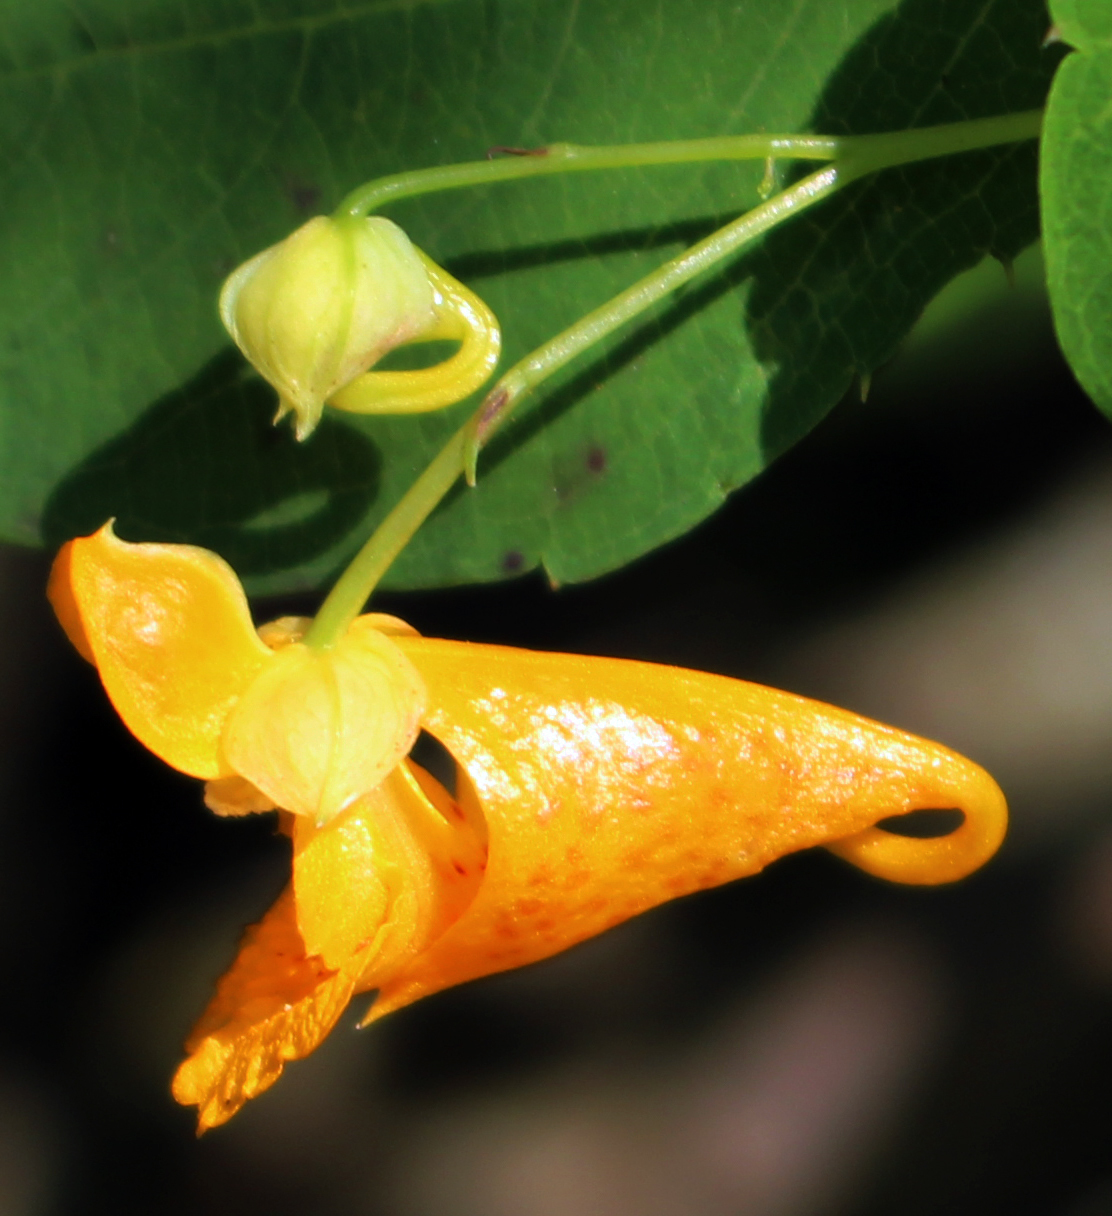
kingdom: Plantae
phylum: Tracheophyta
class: Magnoliopsida
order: Ericales
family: Balsaminaceae
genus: Impatiens
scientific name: Impatiens capensis
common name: Orange balsam
